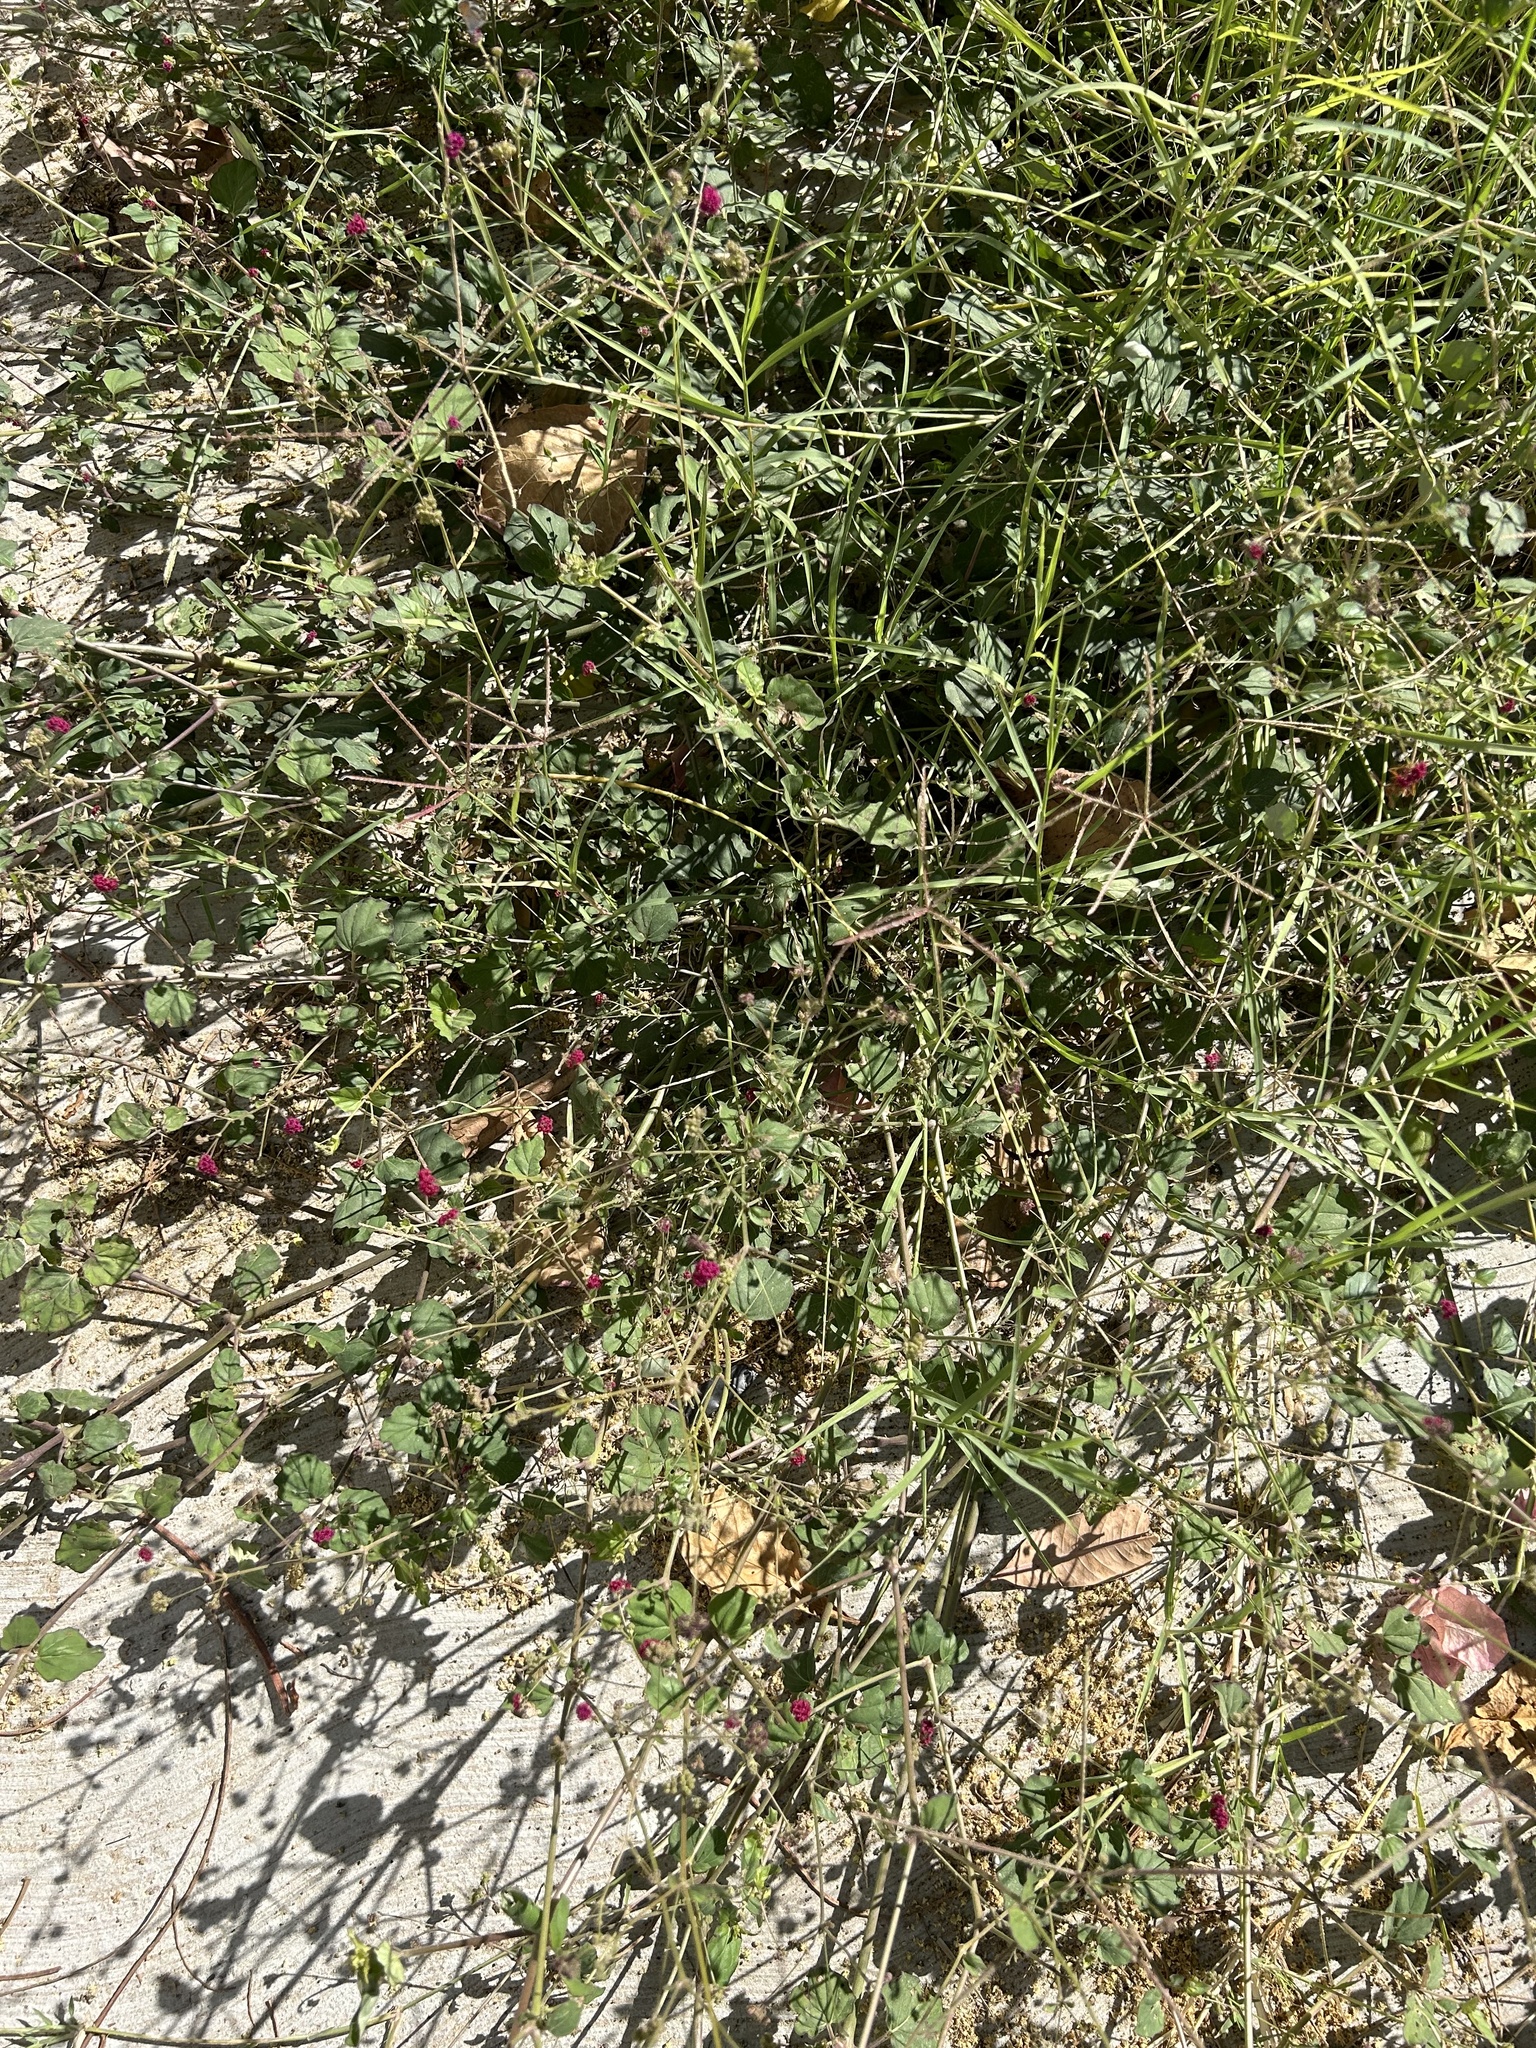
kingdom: Plantae
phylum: Tracheophyta
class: Magnoliopsida
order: Caryophyllales
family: Nyctaginaceae
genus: Boerhavia
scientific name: Boerhavia coccinea
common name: Scarlet spiderling
